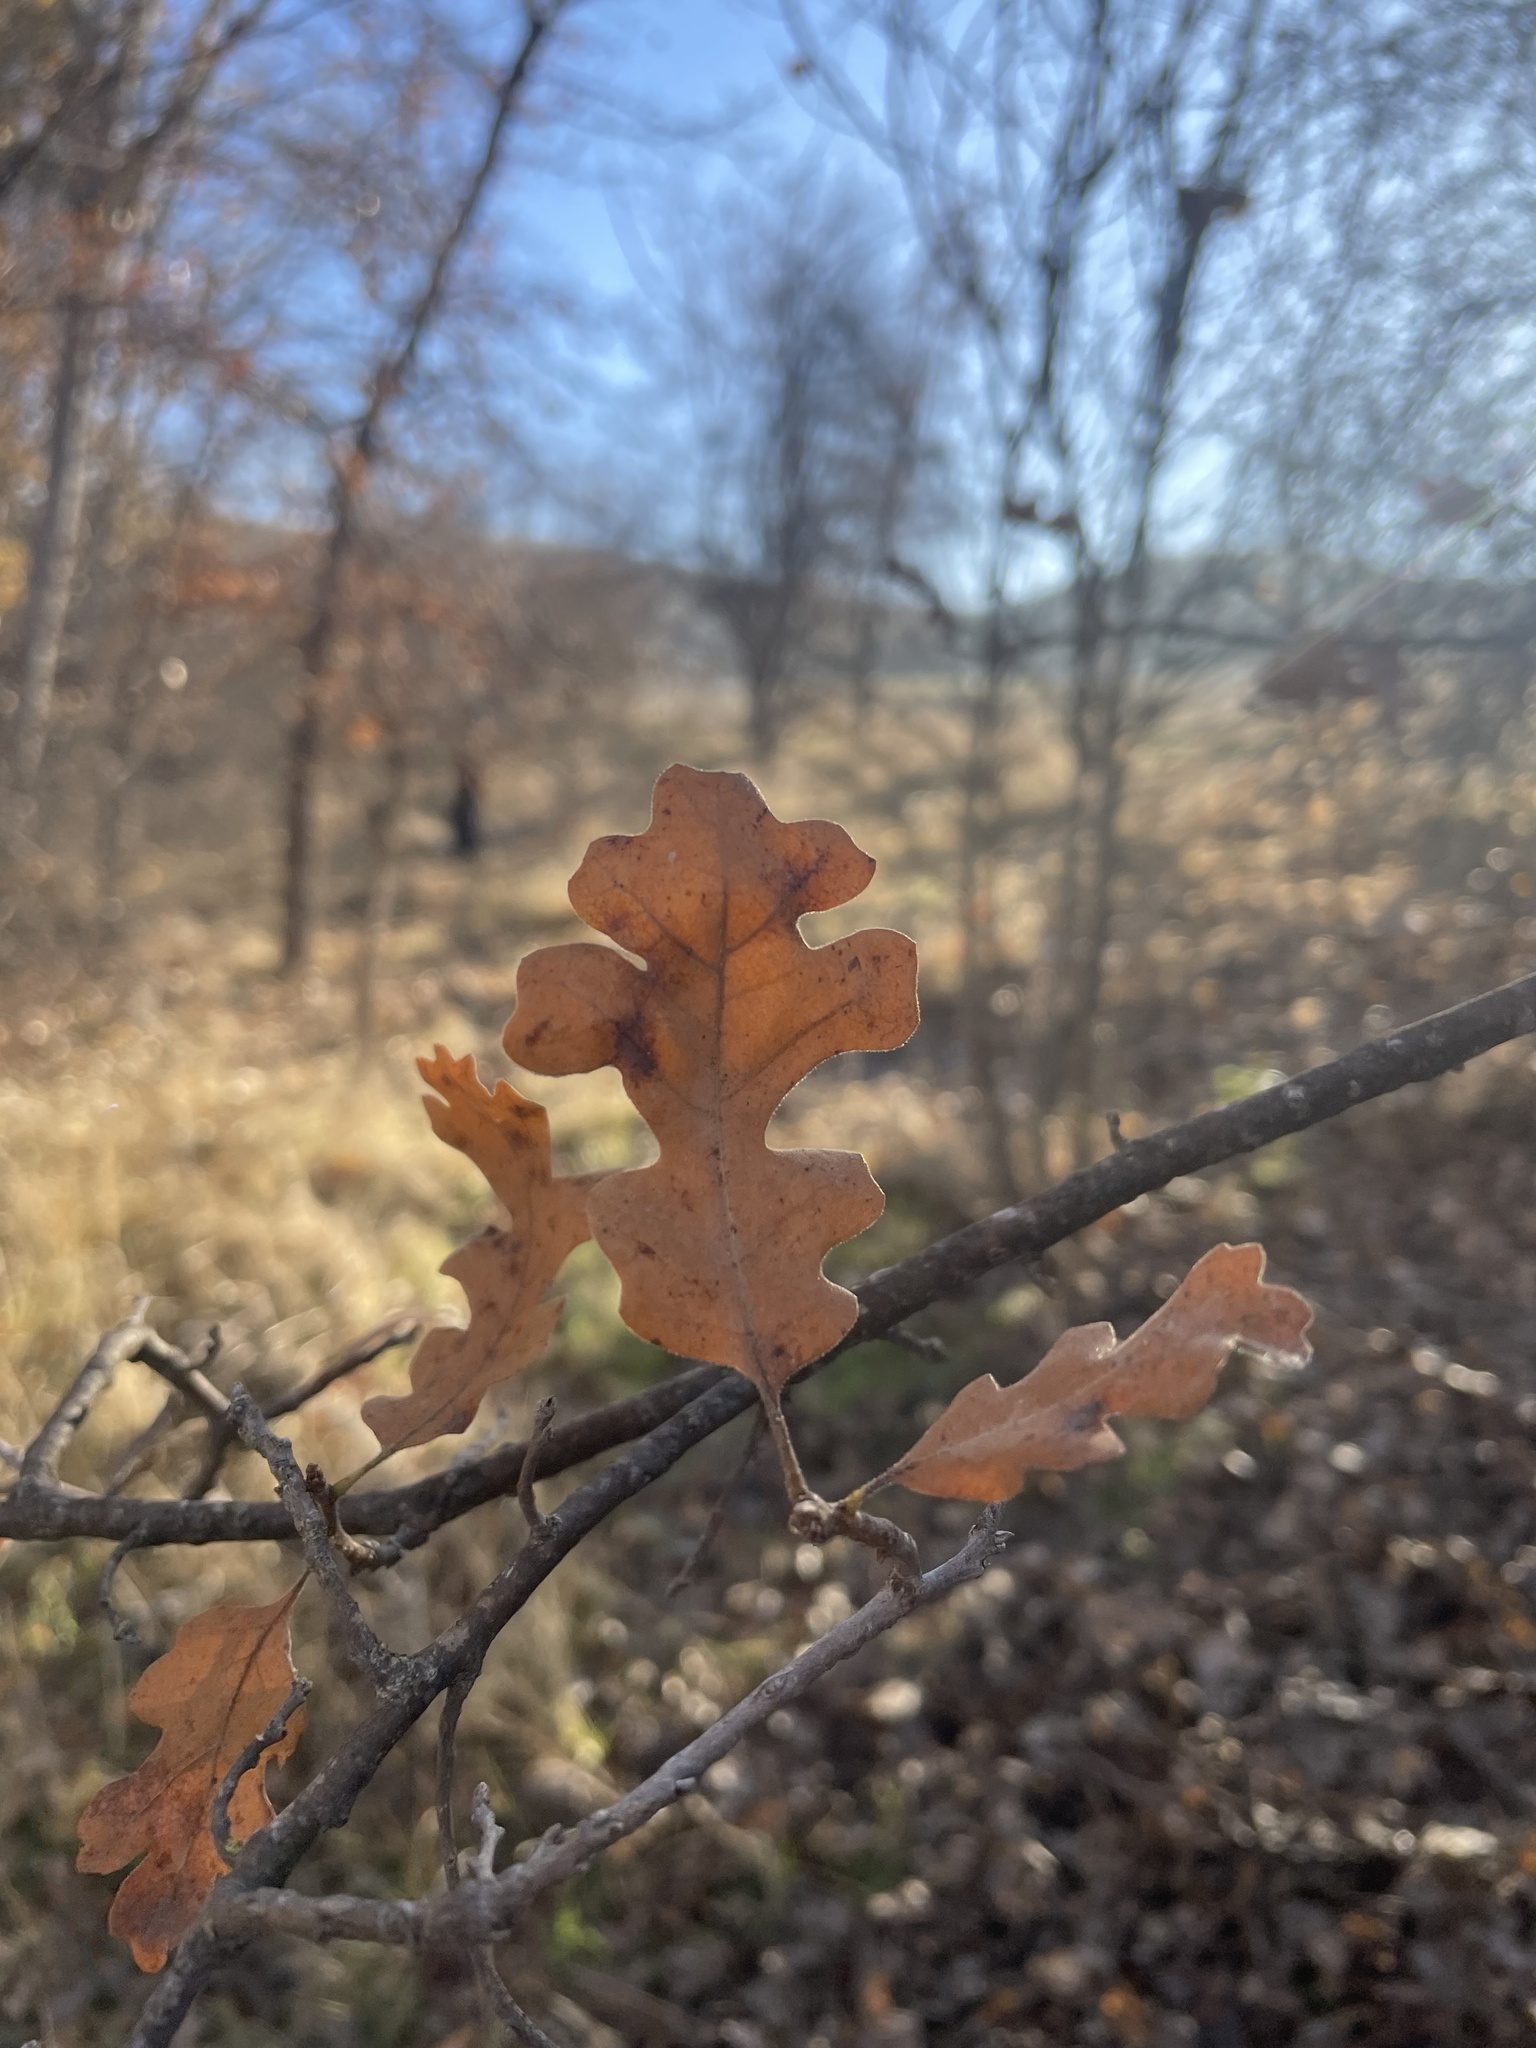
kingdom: Plantae
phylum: Tracheophyta
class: Magnoliopsida
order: Fagales
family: Fagaceae
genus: Quercus
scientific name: Quercus lobata
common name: Valley oak
